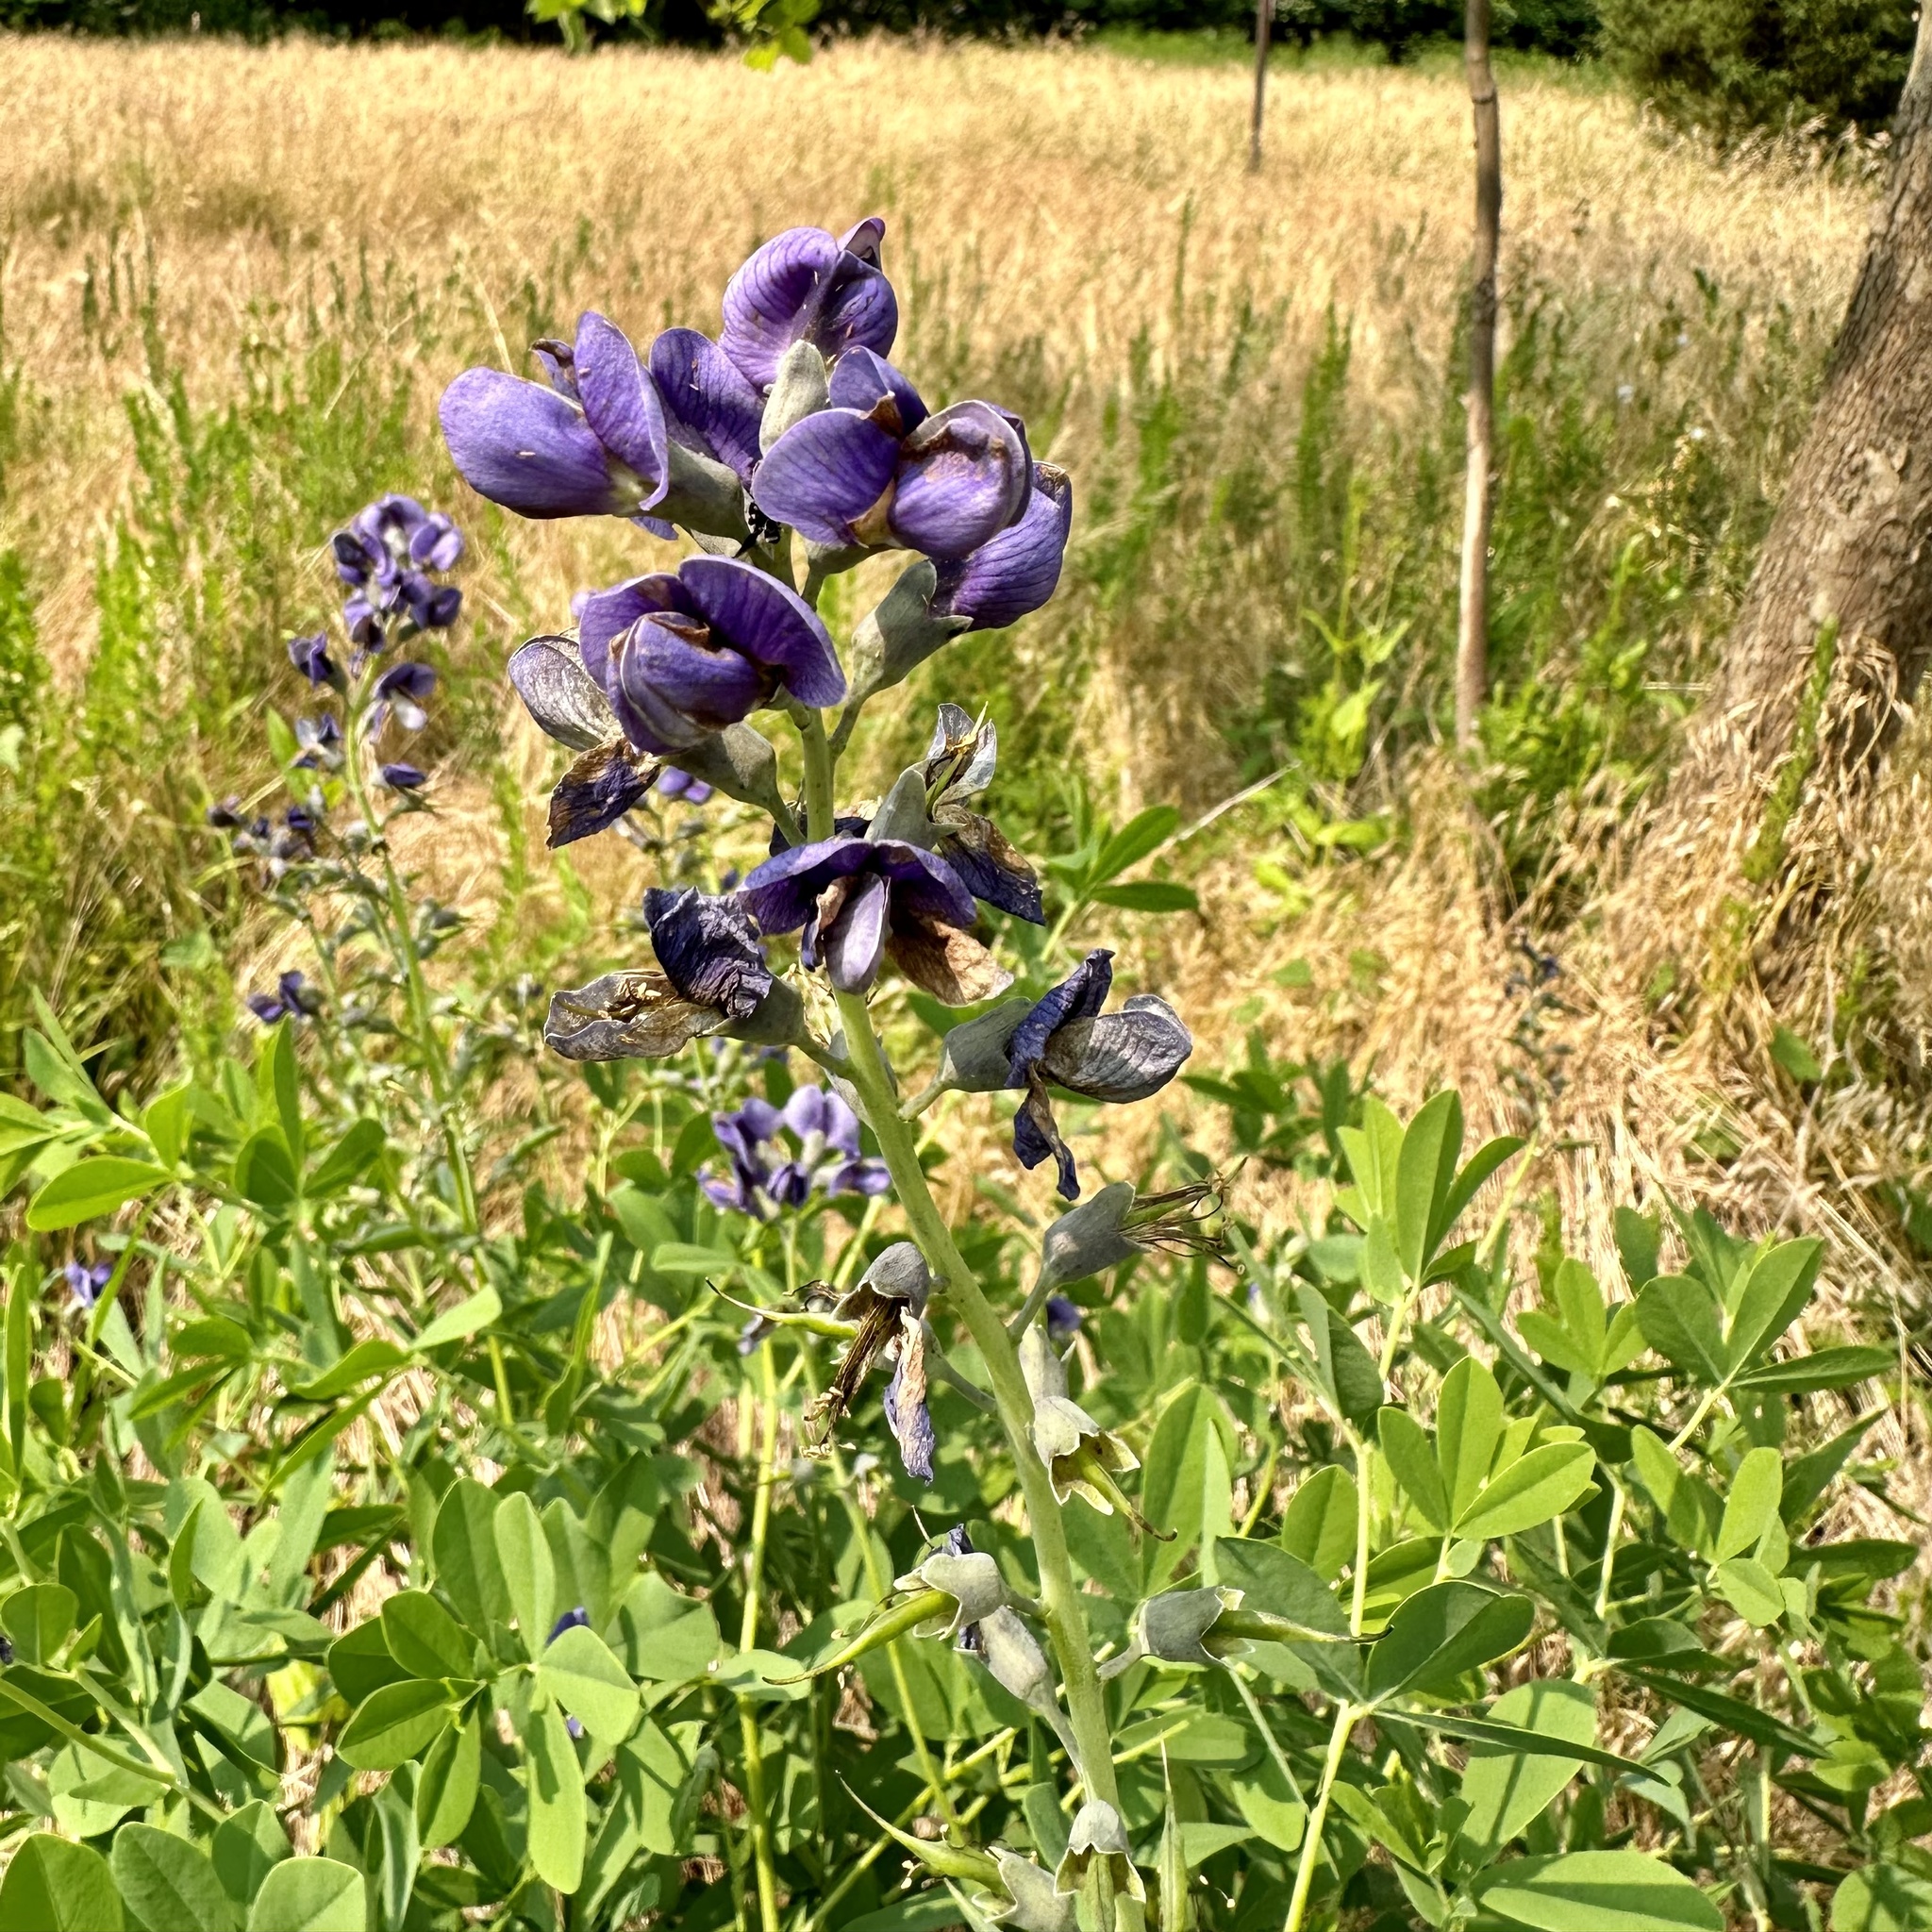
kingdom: Plantae
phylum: Tracheophyta
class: Magnoliopsida
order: Fabales
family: Fabaceae
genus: Baptisia
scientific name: Baptisia australis
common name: Blue false indigo
